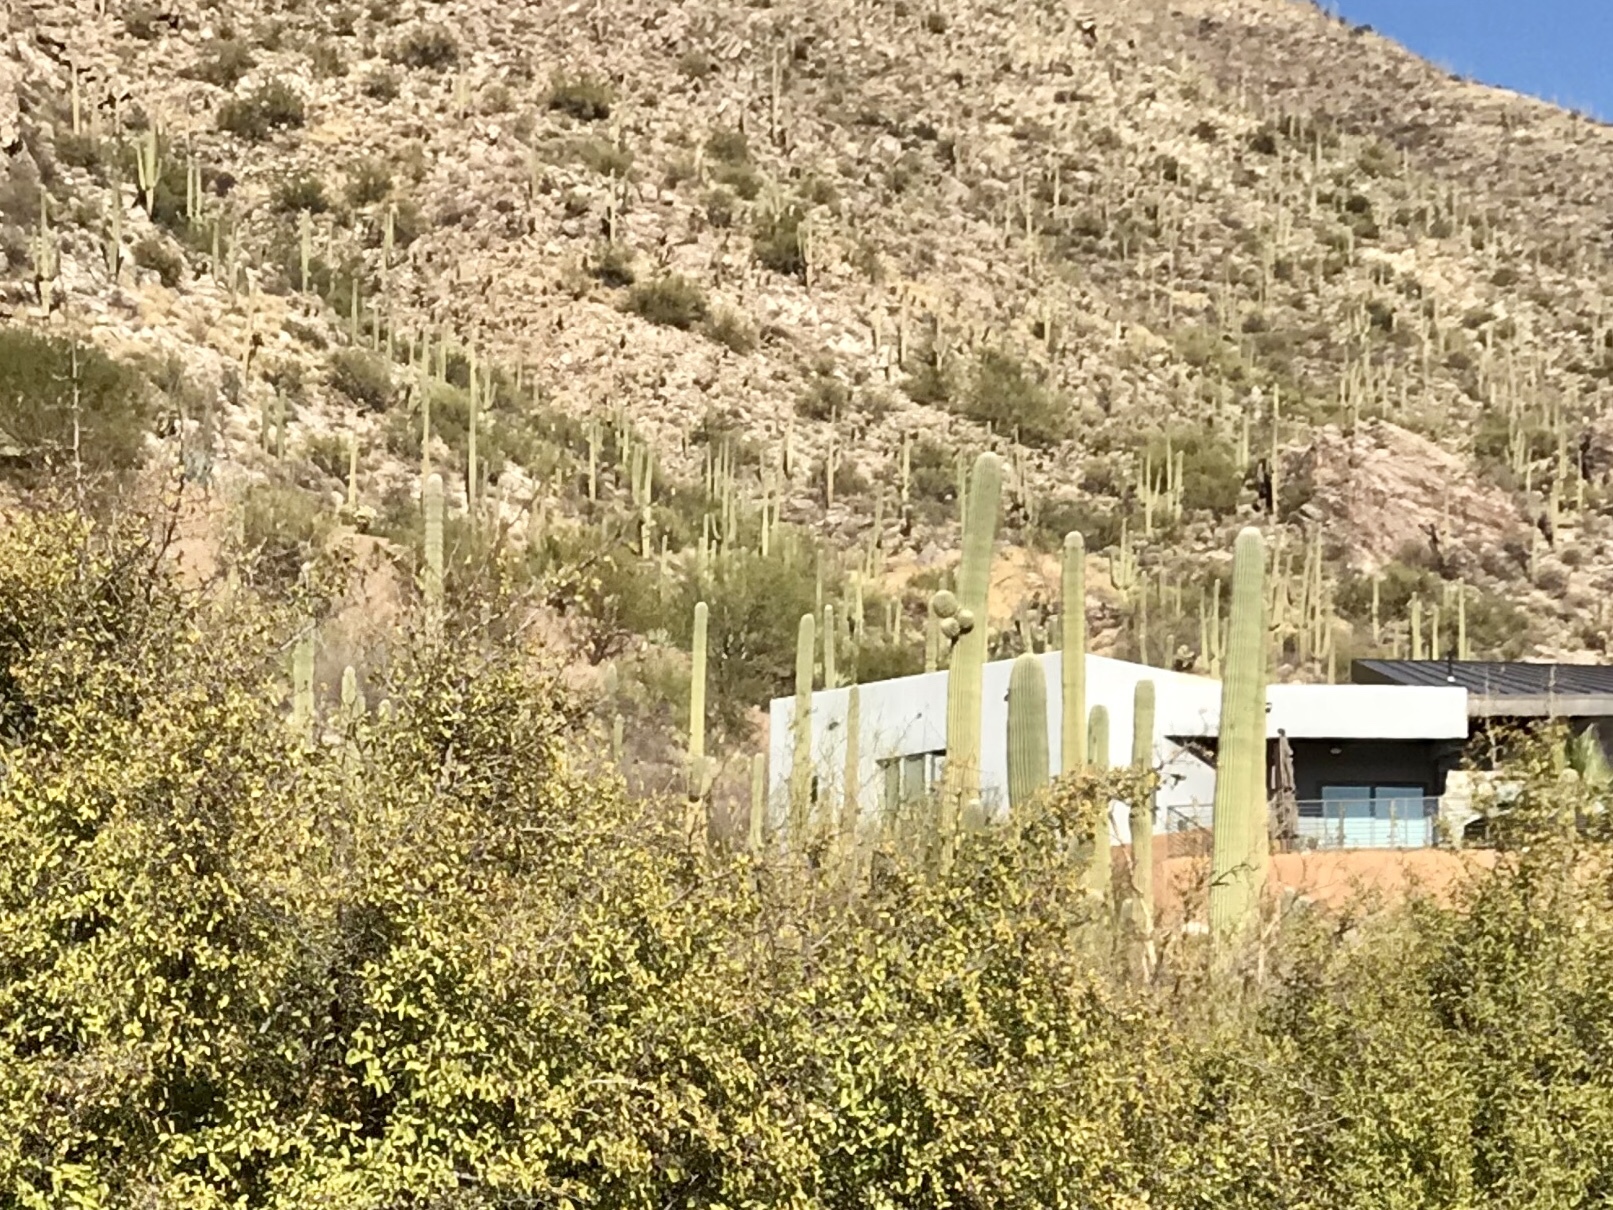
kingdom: Plantae
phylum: Tracheophyta
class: Magnoliopsida
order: Caryophyllales
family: Cactaceae
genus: Carnegiea
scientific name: Carnegiea gigantea
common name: Saguaro
